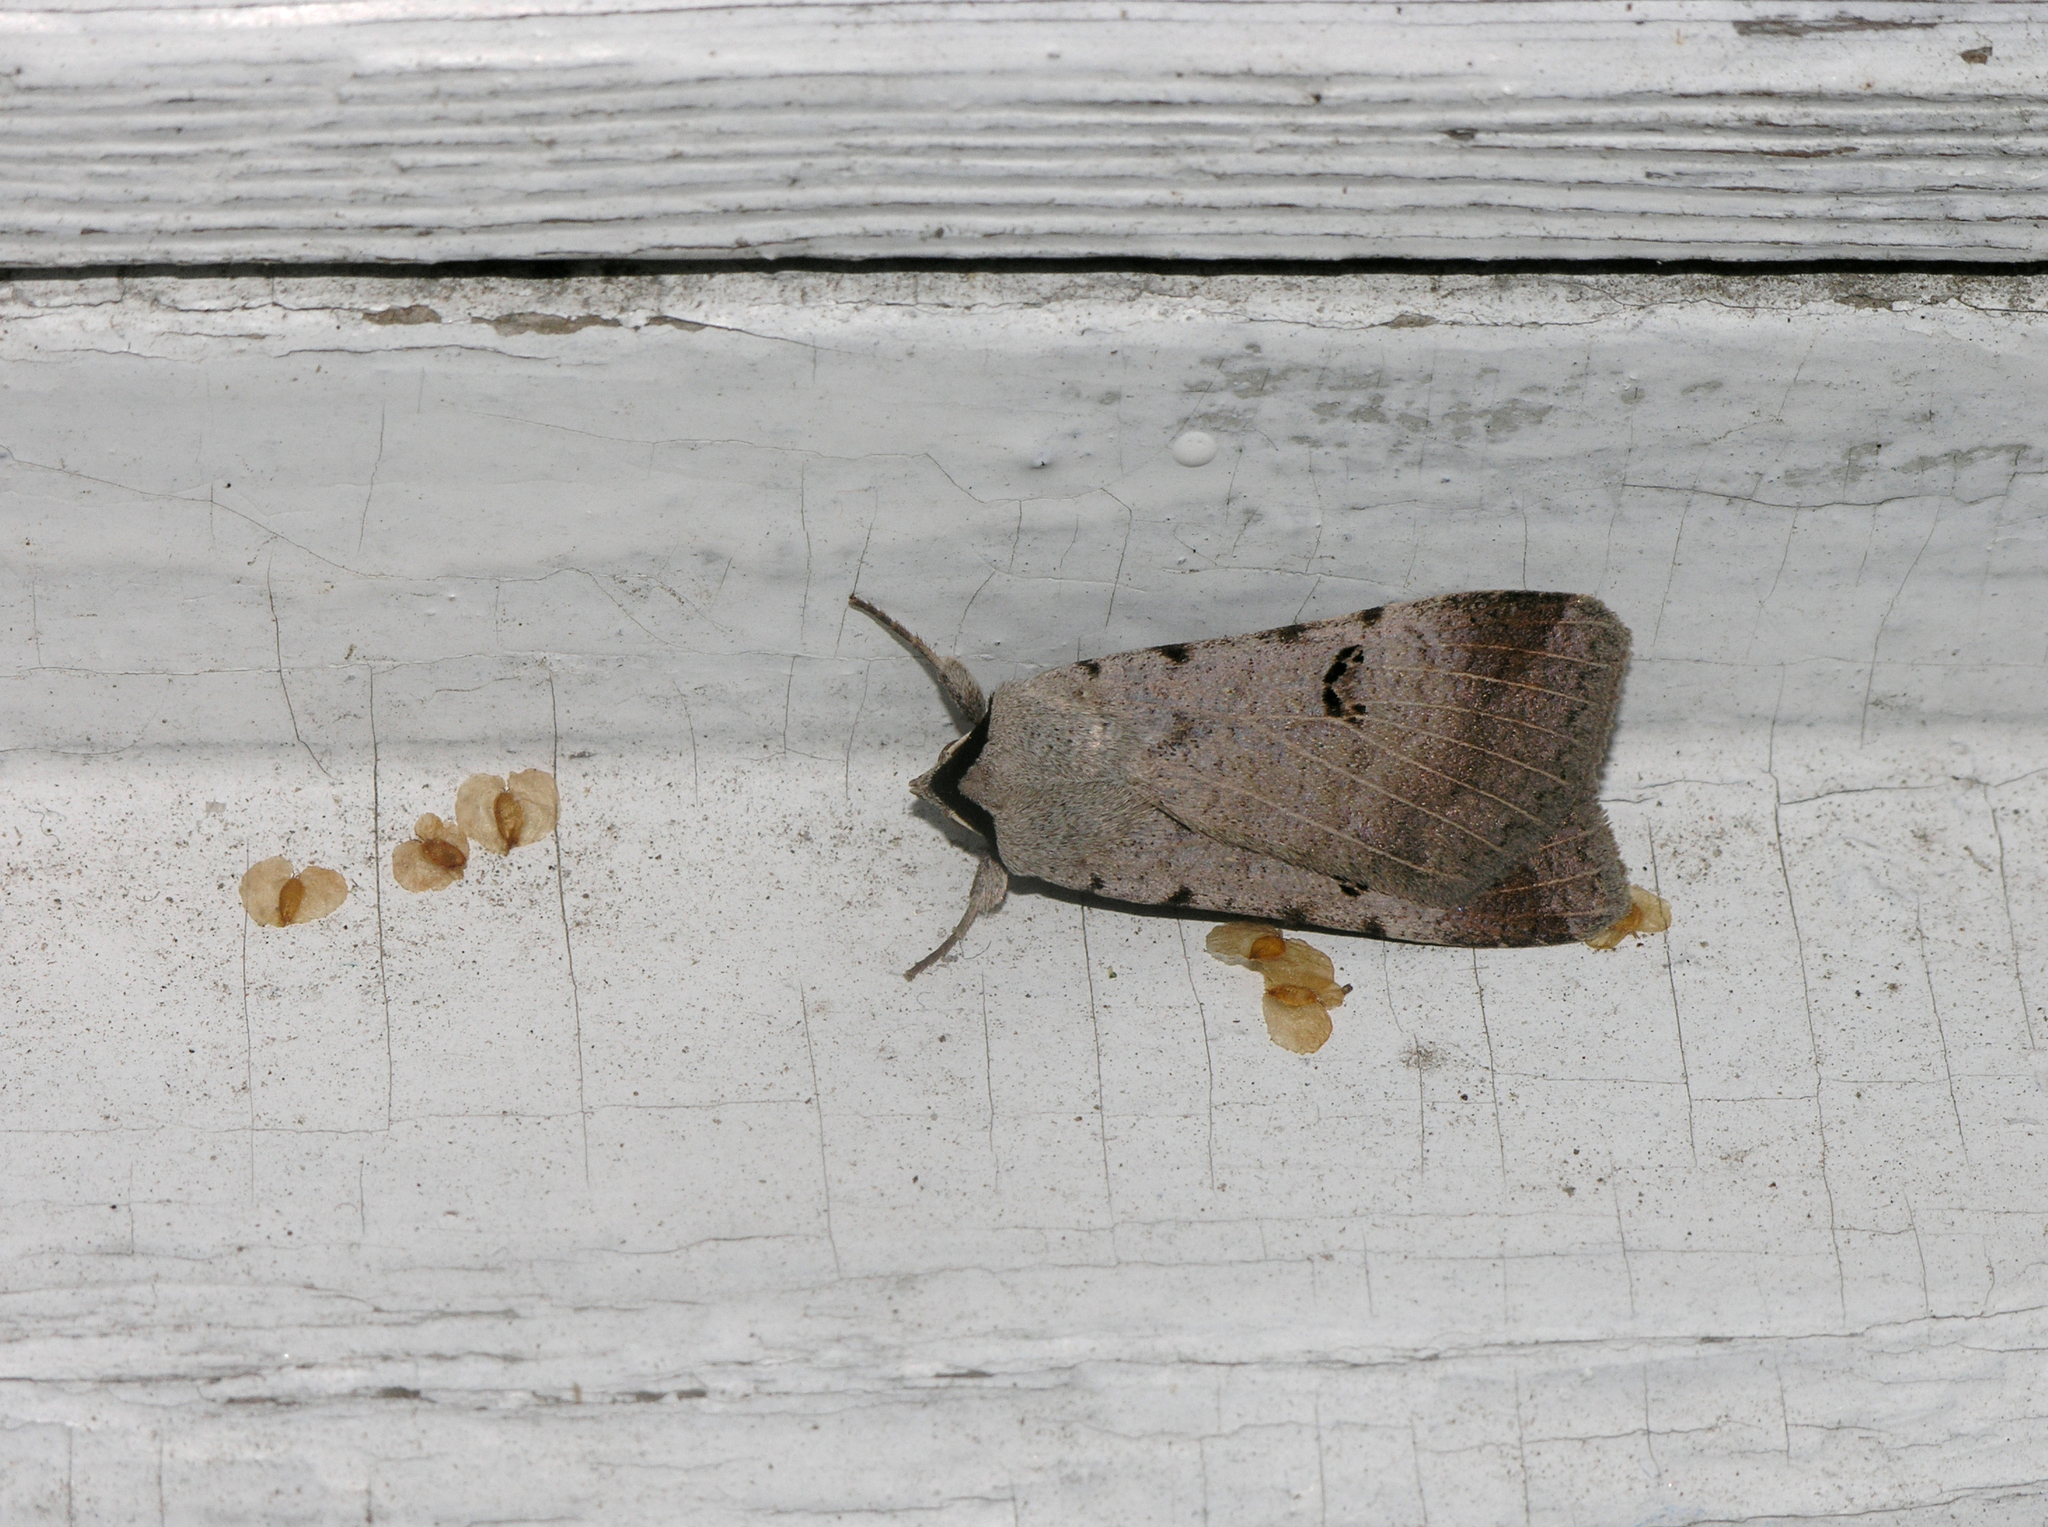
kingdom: Animalia
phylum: Arthropoda
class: Insecta
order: Lepidoptera
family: Erebidae
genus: Lygephila
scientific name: Lygephila craccae
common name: Scarce blackneck
